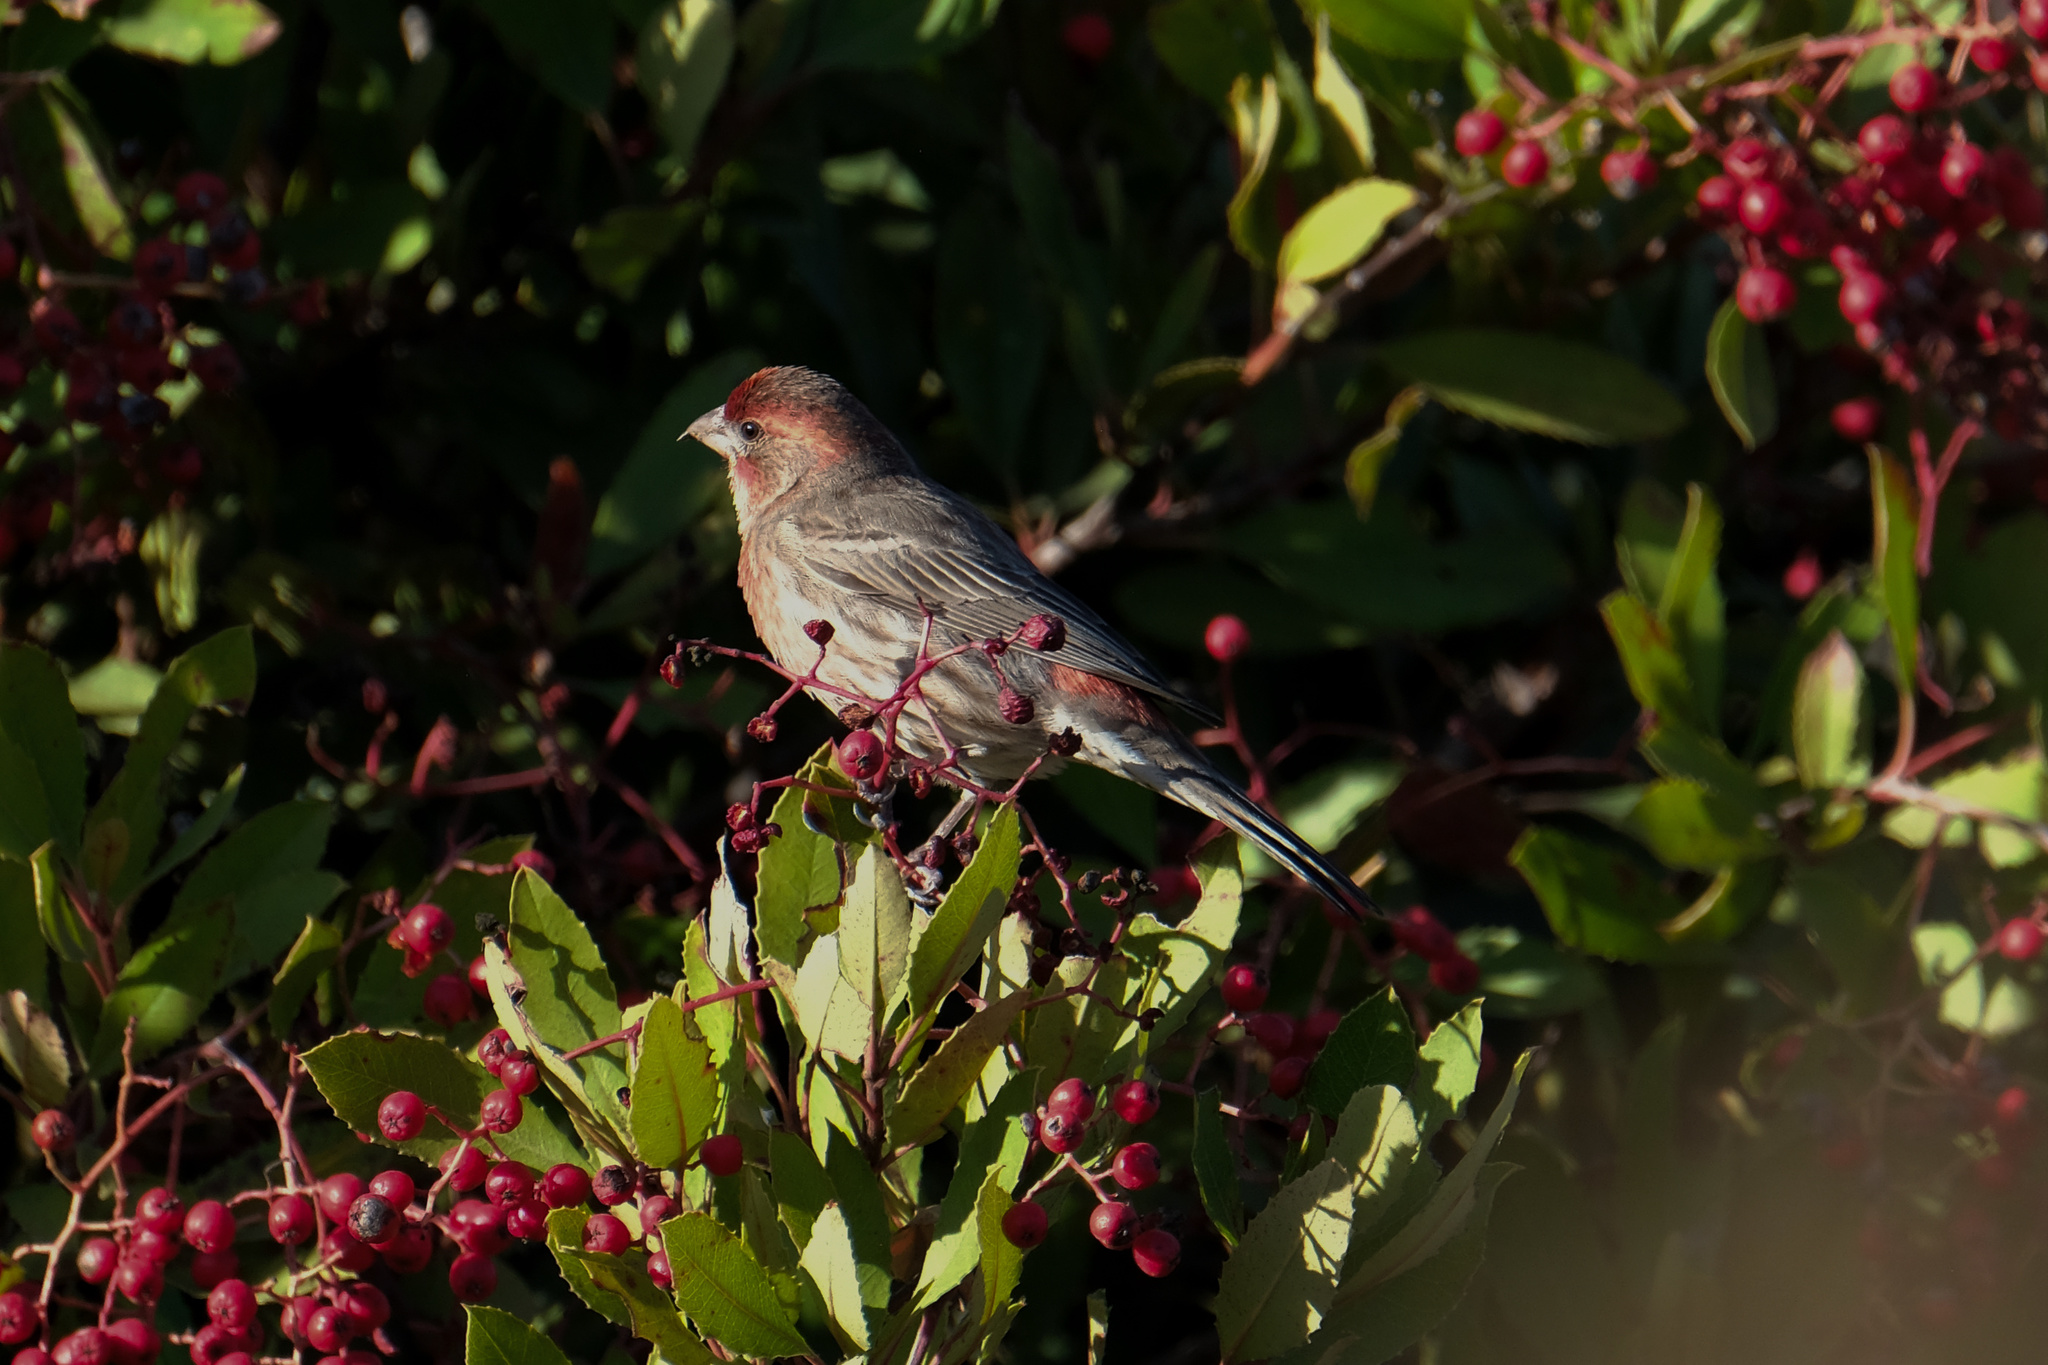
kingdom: Animalia
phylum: Chordata
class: Aves
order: Passeriformes
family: Fringillidae
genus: Haemorhous
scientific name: Haemorhous mexicanus
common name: House finch
